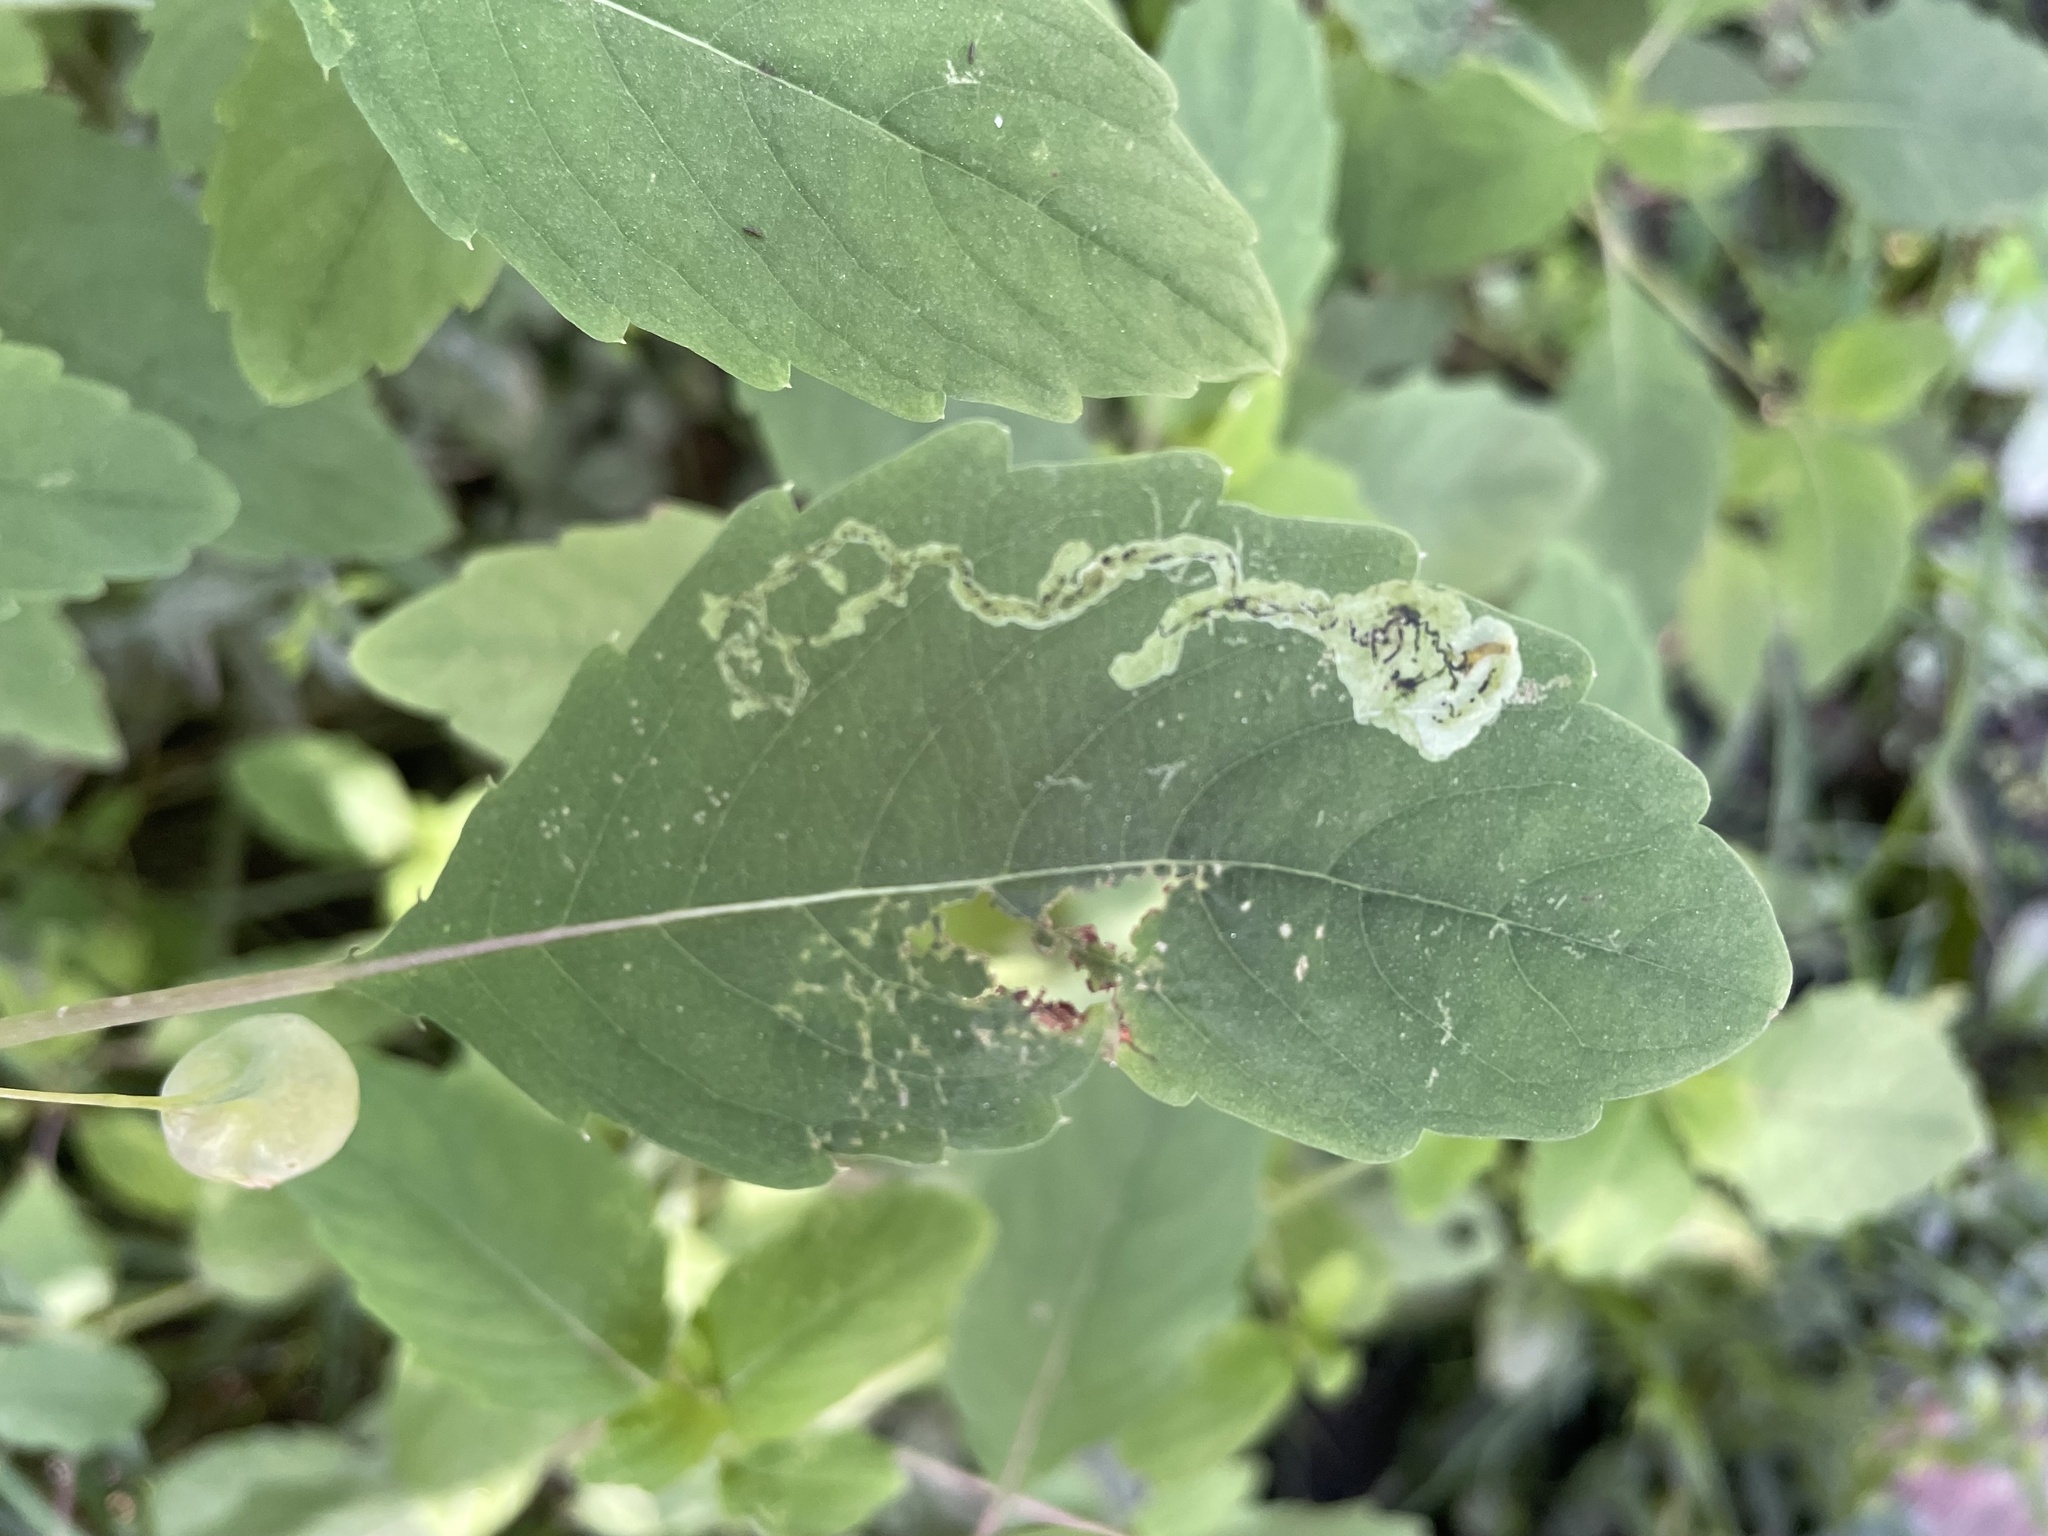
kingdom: Animalia
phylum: Arthropoda
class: Insecta
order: Diptera
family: Agromyzidae
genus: Phytoliriomyza
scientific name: Phytoliriomyza melampyga
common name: Jewelweed leaf-miner fly
